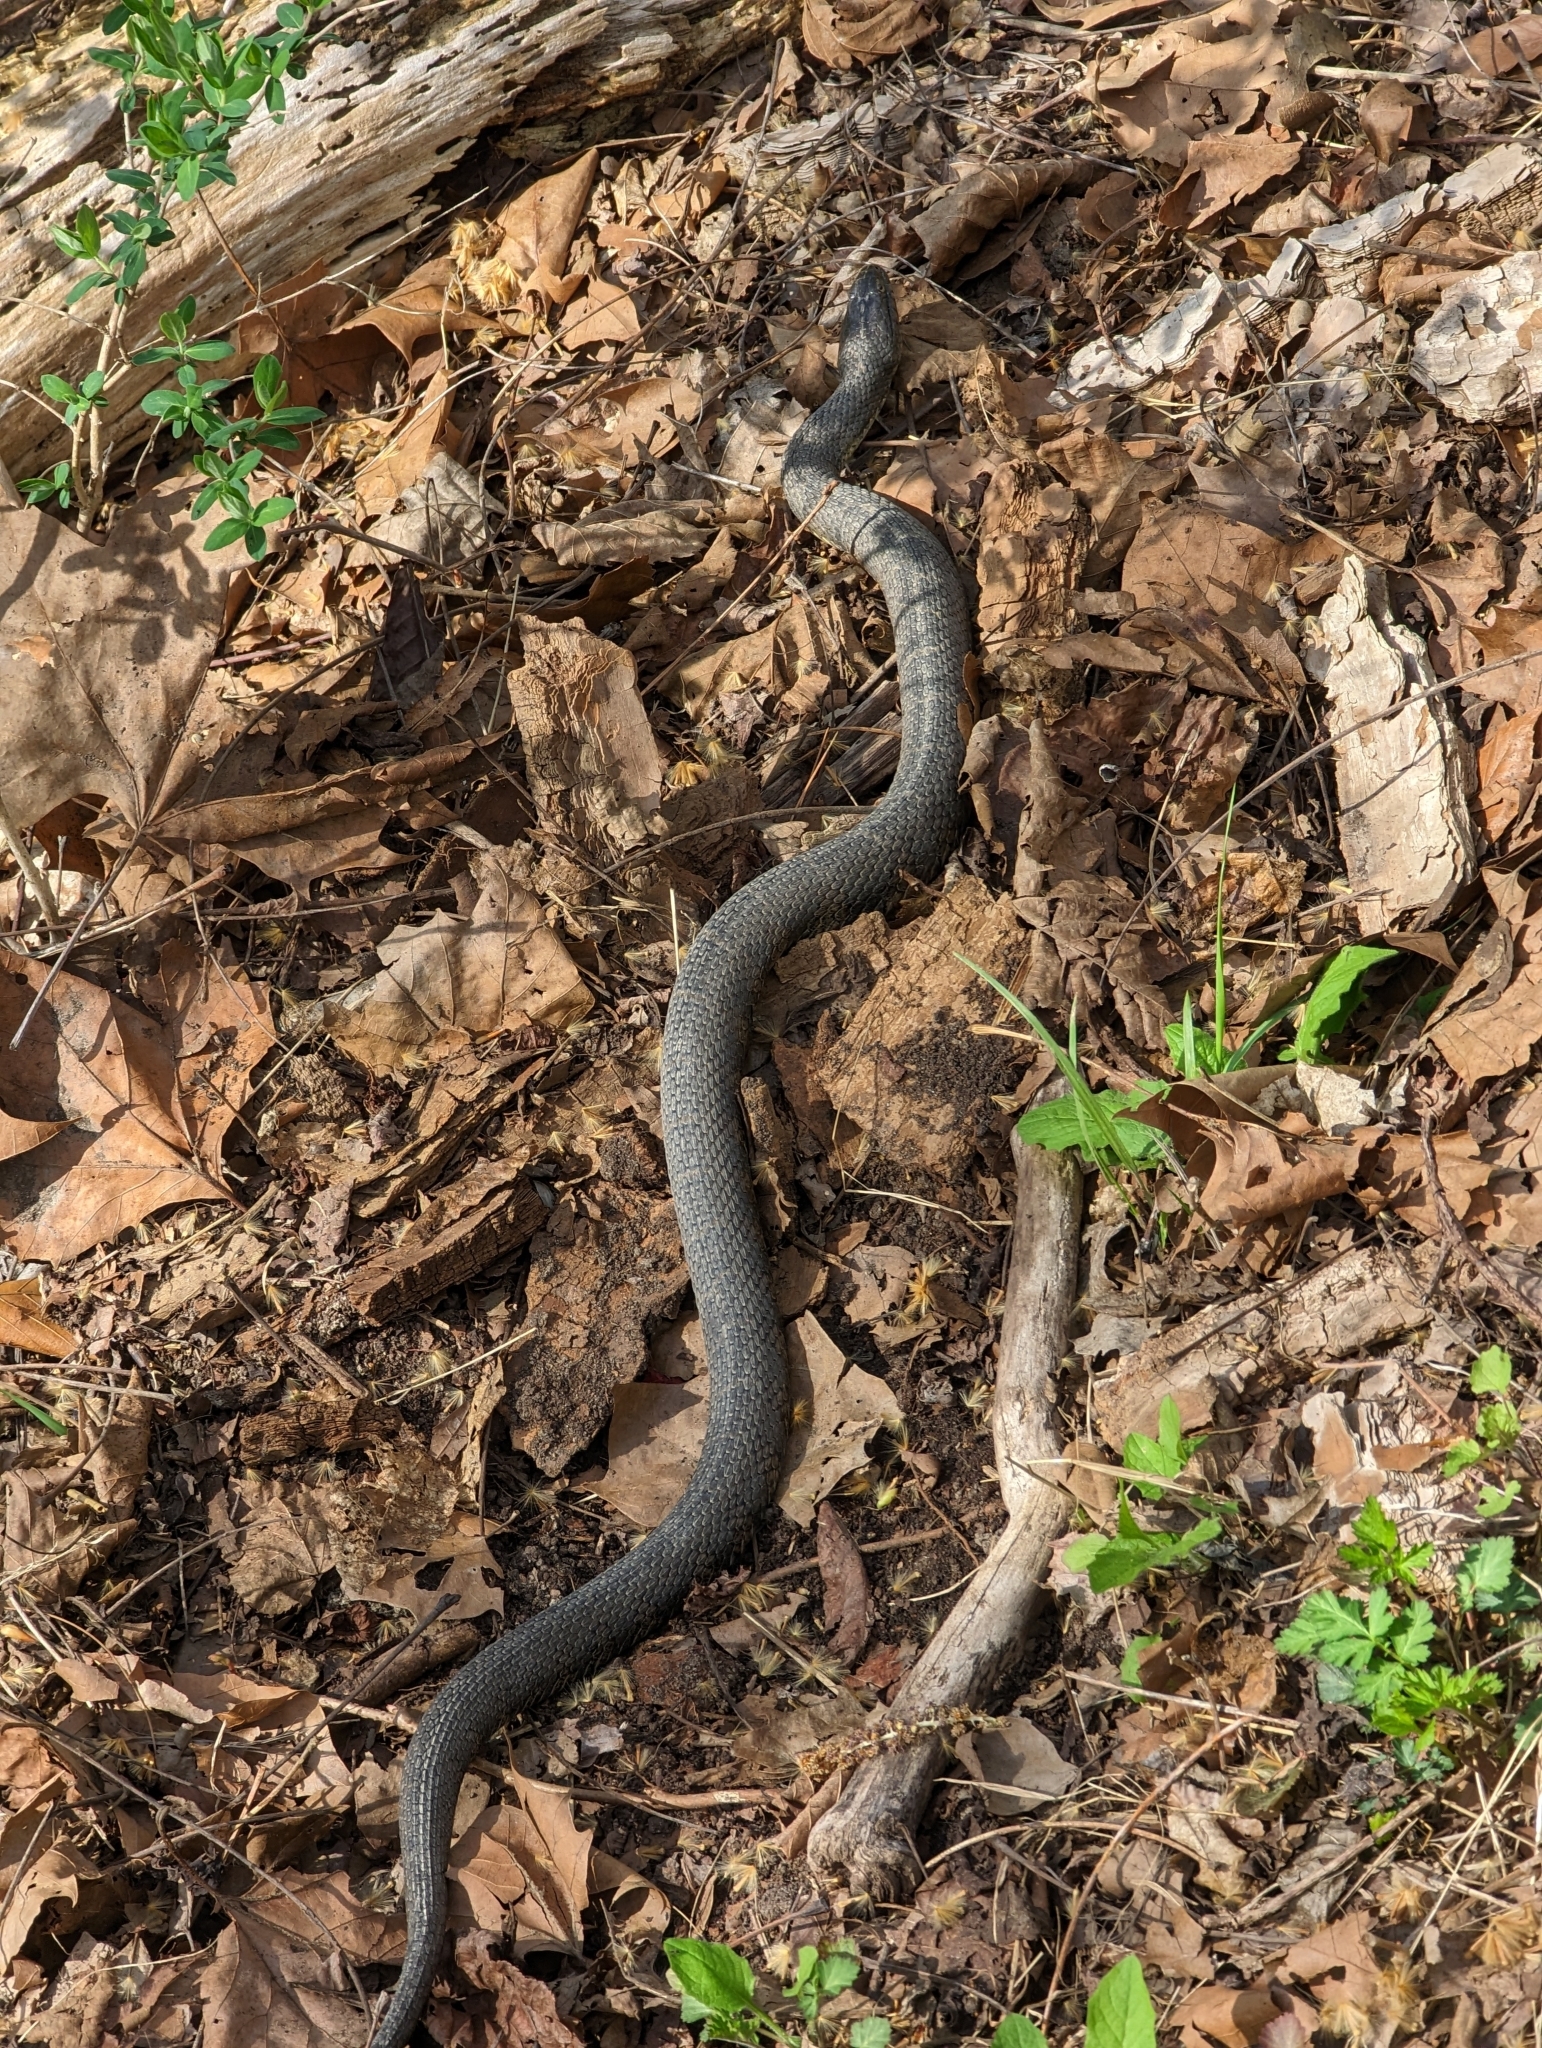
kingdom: Animalia
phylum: Chordata
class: Squamata
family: Colubridae
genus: Nerodia
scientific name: Nerodia sipedon
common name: Northern water snake
